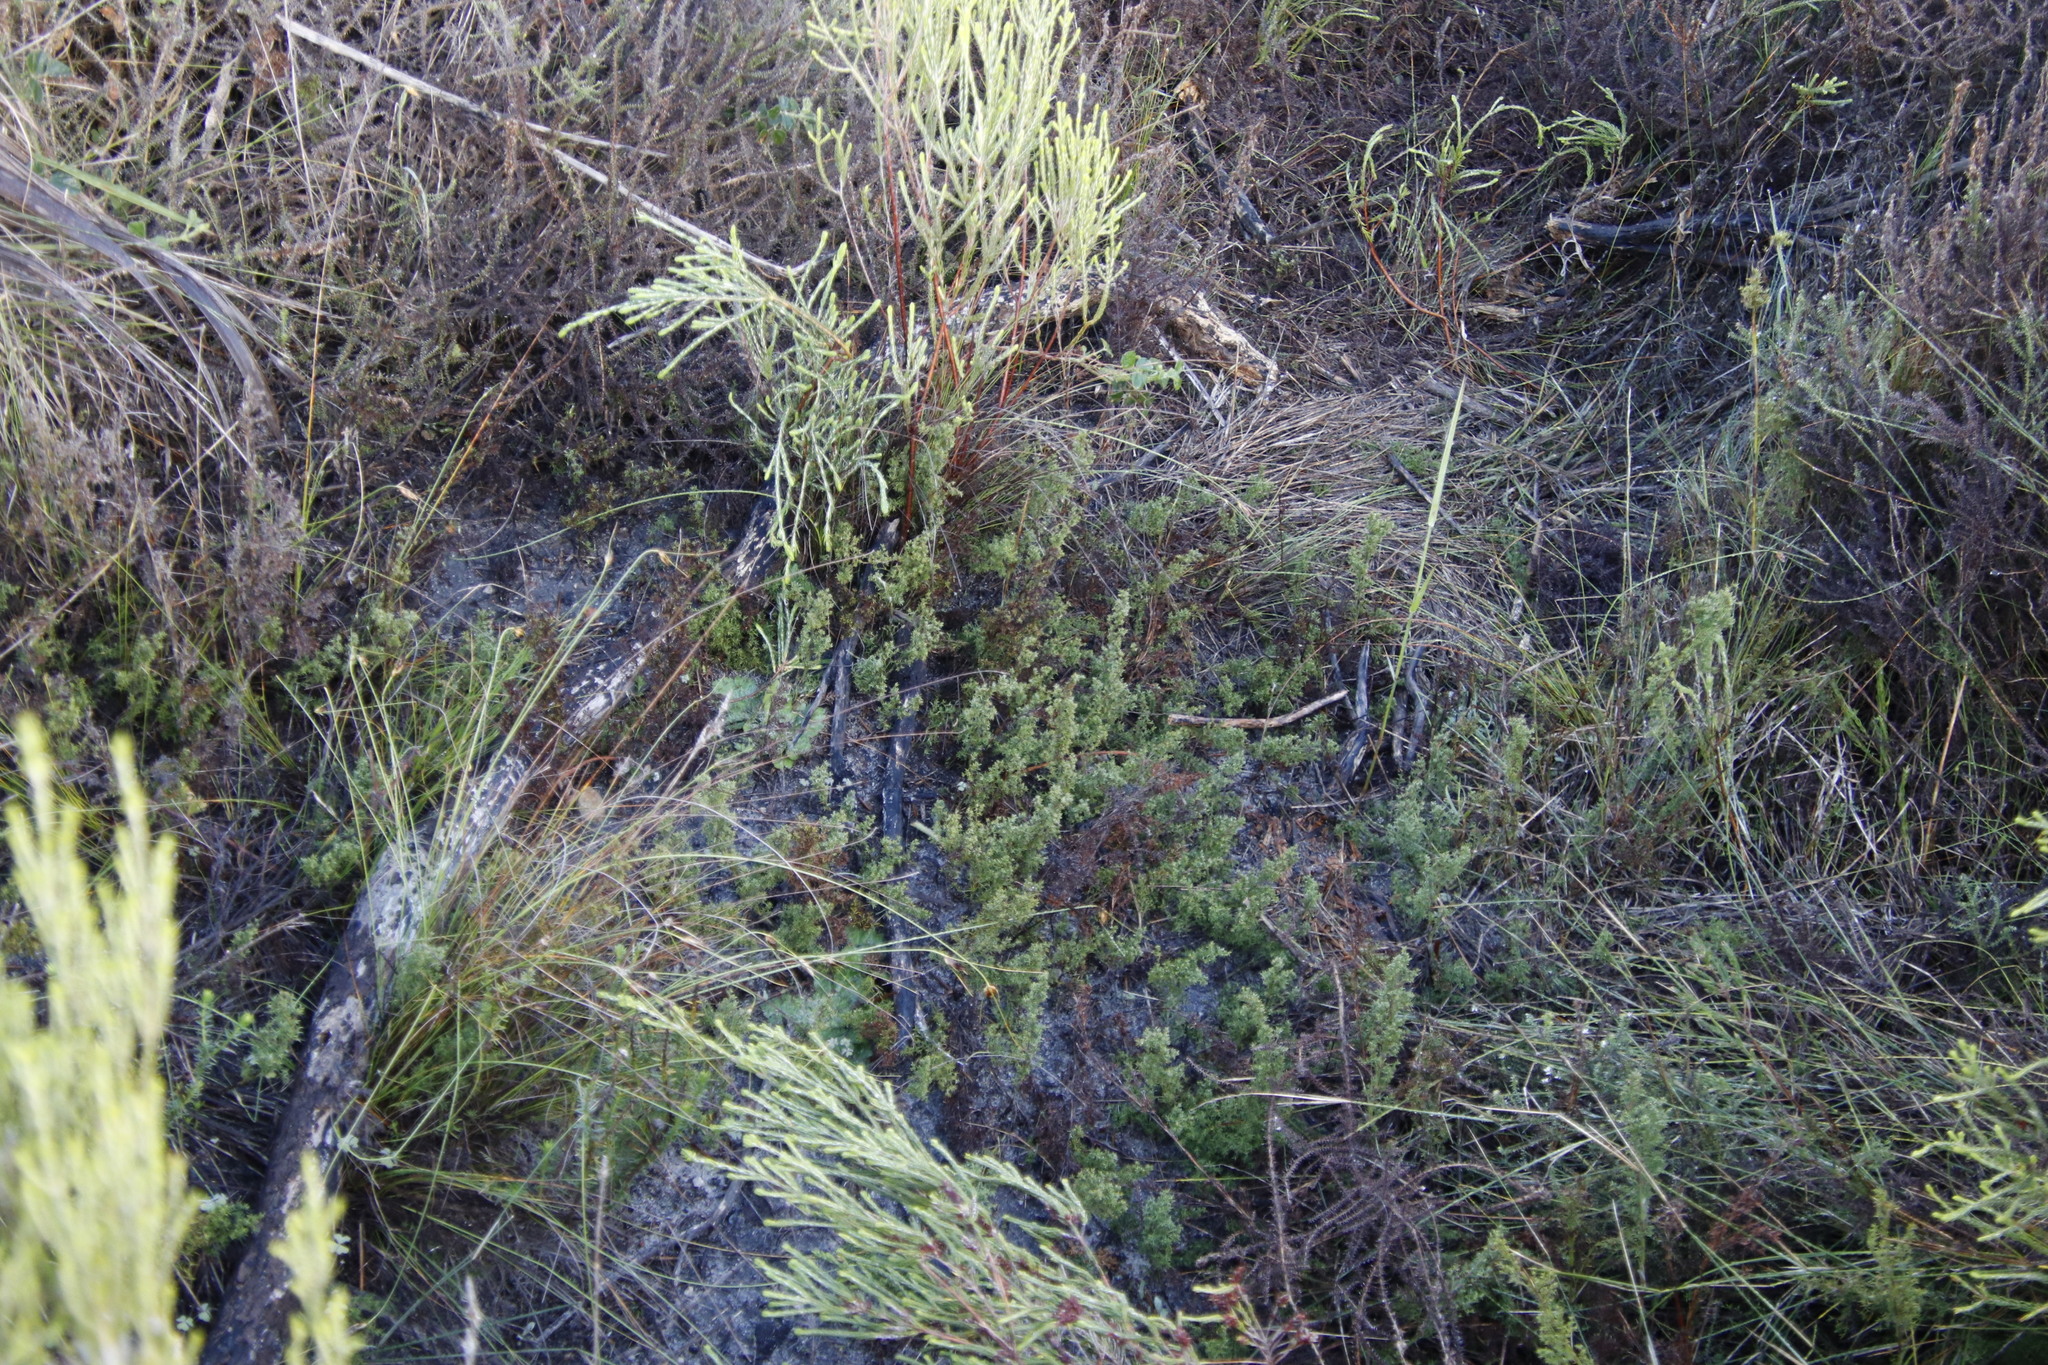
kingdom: Plantae
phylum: Tracheophyta
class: Liliopsida
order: Poales
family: Restionaceae
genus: Thamnochortus
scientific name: Thamnochortus fruticosus
